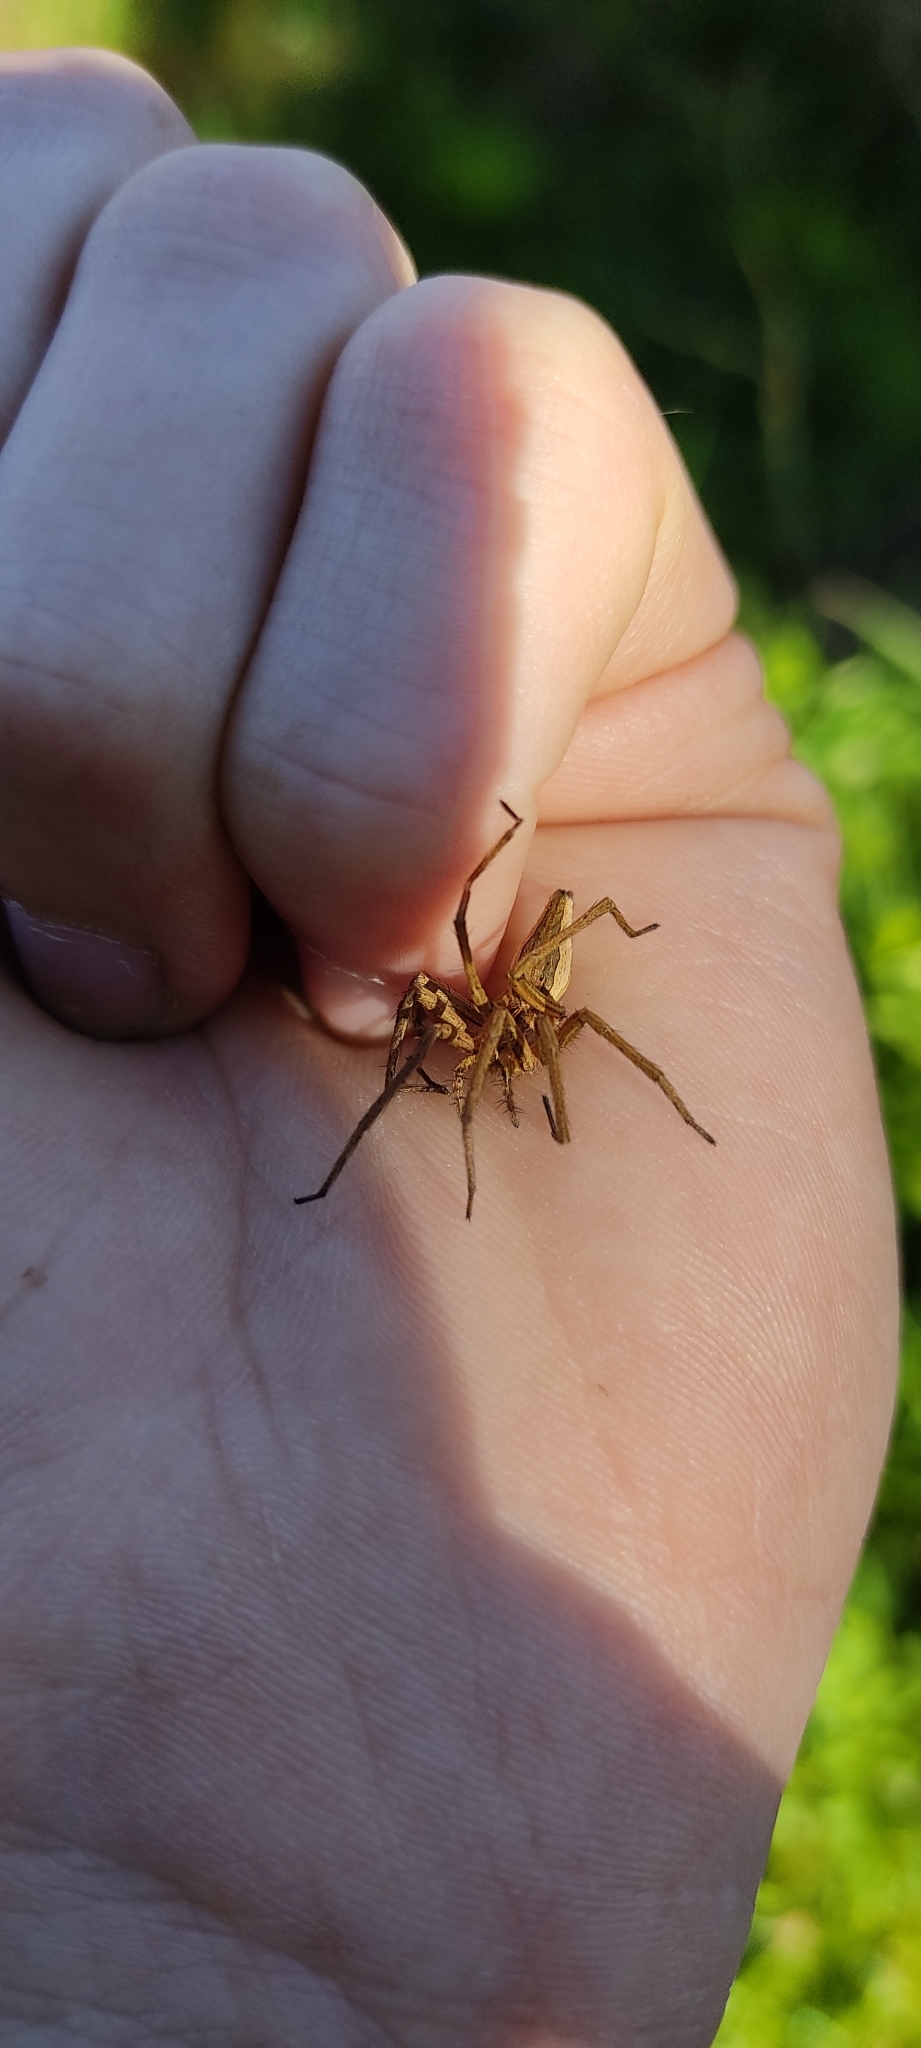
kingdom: Animalia
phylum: Arthropoda
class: Arachnida
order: Araneae
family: Pisauridae
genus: Pisaura
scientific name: Pisaura
